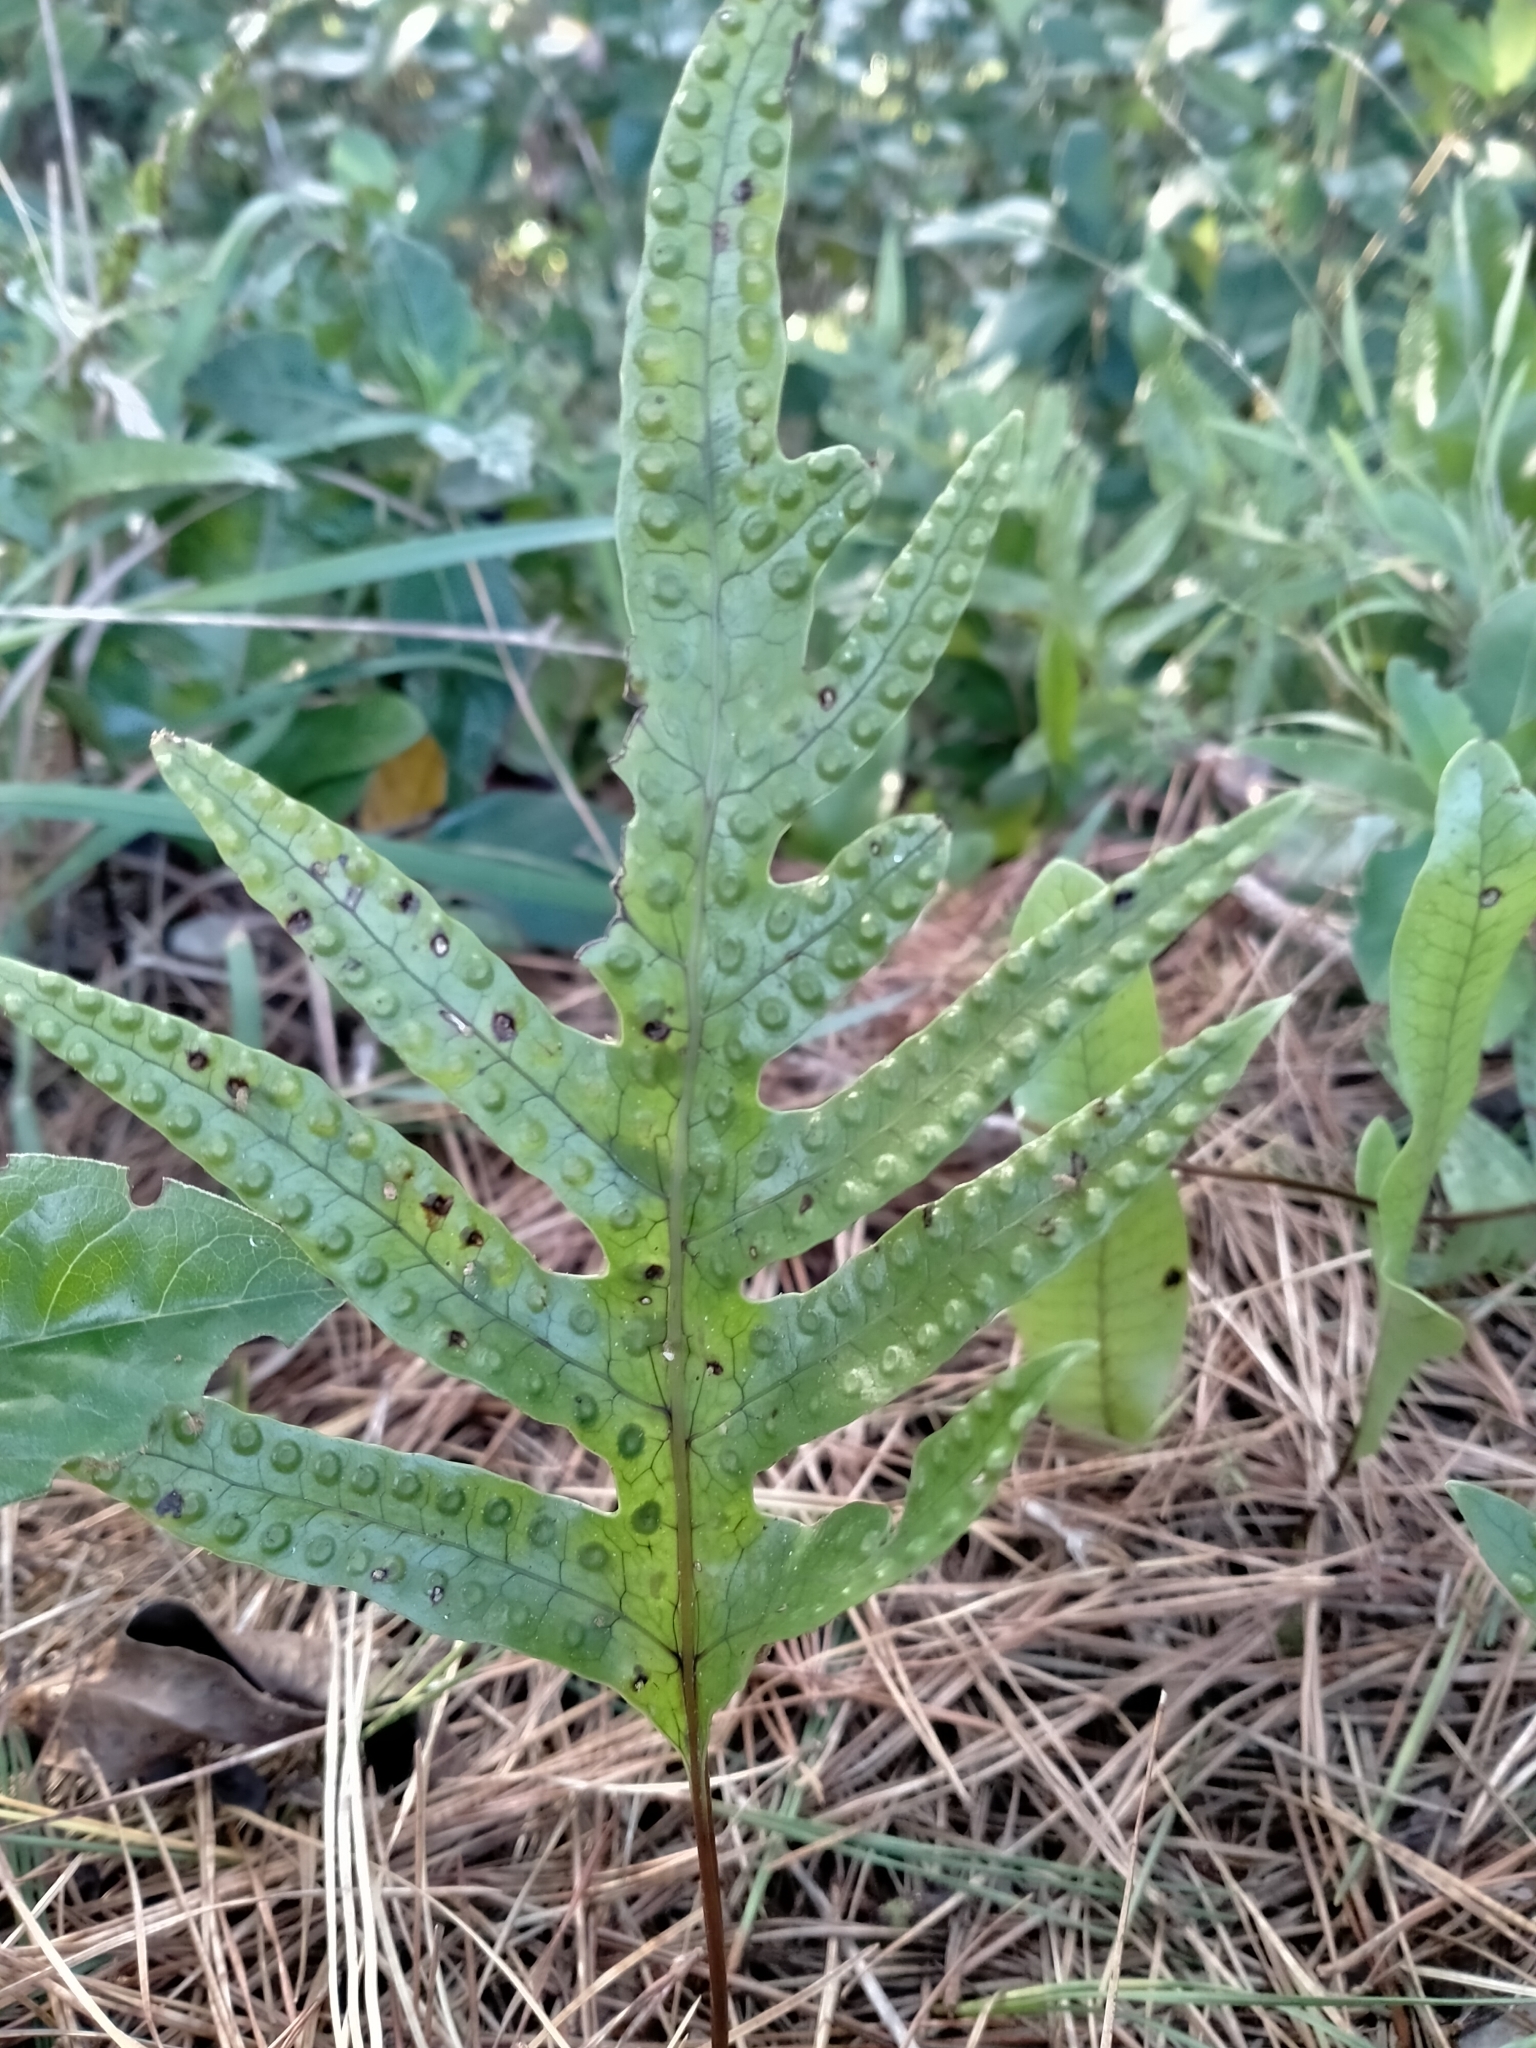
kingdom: Plantae
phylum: Tracheophyta
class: Polypodiopsida
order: Polypodiales
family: Polypodiaceae
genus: Lecanopteris
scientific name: Lecanopteris pustulata
